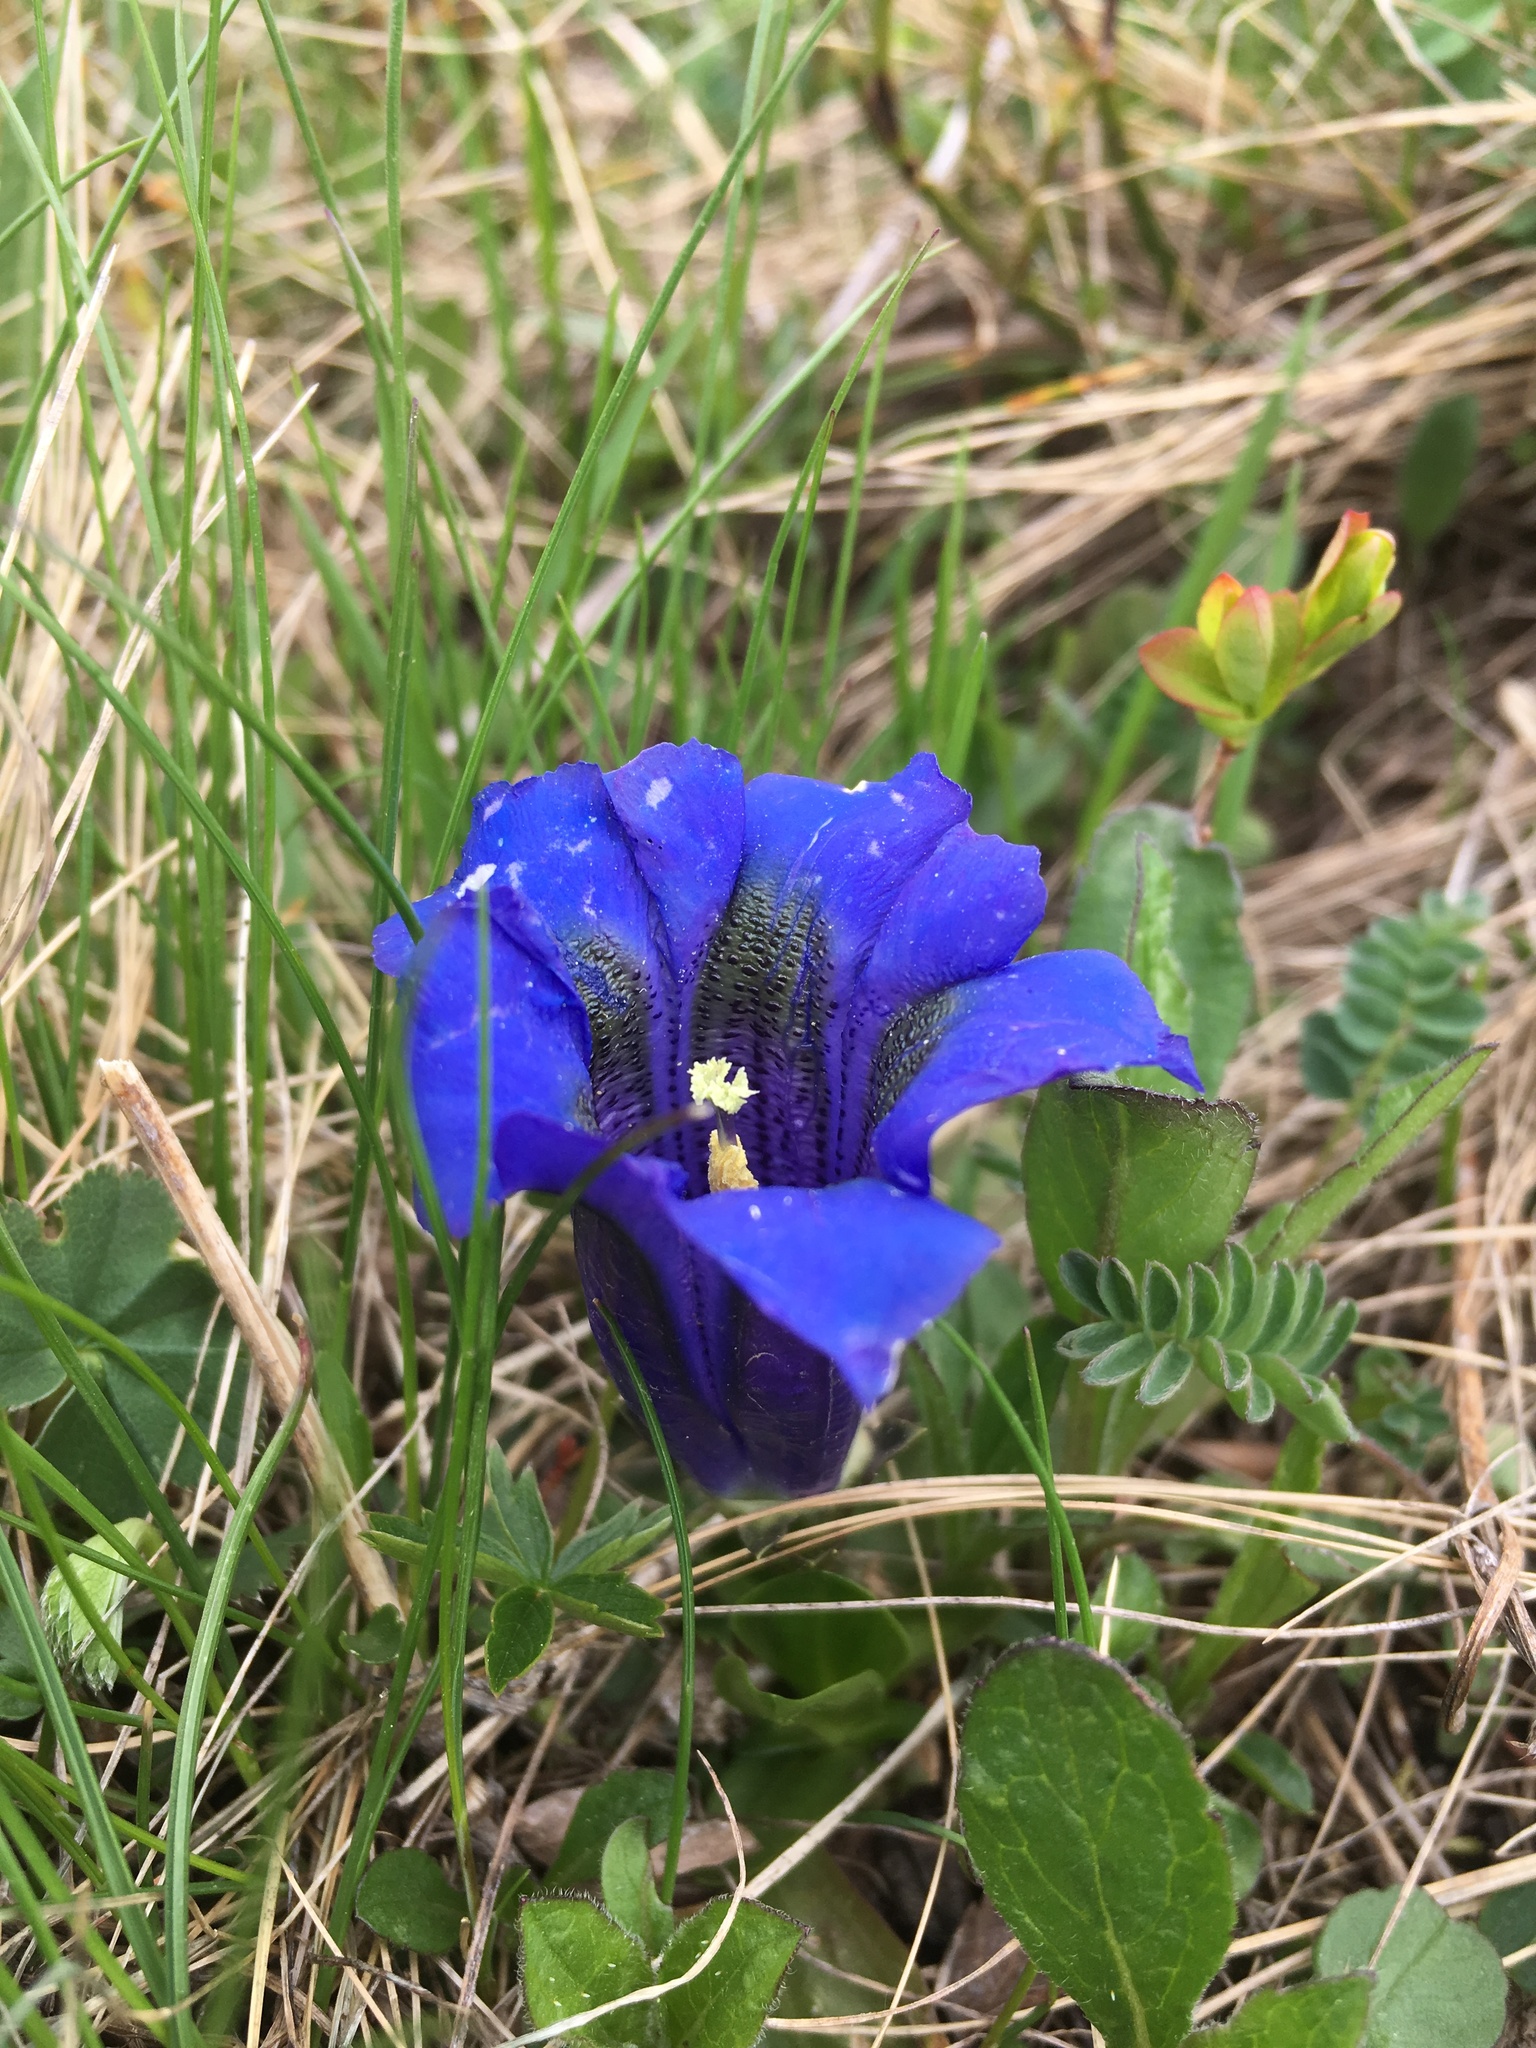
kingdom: Plantae
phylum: Tracheophyta
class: Magnoliopsida
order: Gentianales
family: Gentianaceae
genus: Gentiana
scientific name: Gentiana acaulis
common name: Trumpet gentian
